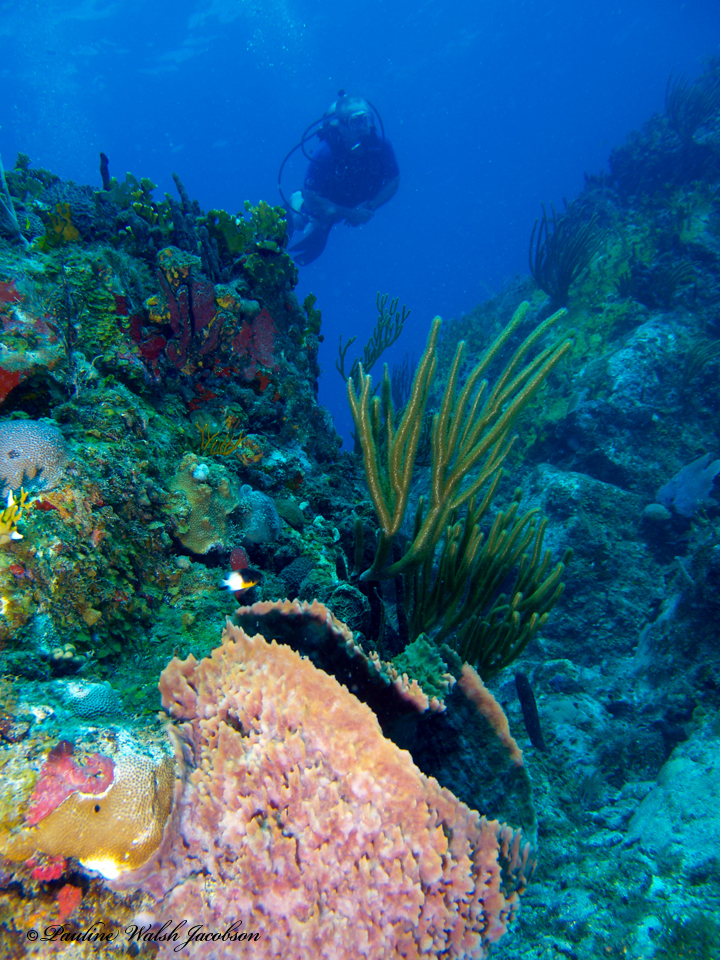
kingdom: Animalia
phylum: Porifera
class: Demospongiae
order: Haplosclerida
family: Petrosiidae
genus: Xestospongia
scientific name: Xestospongia muta
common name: Giant barrel sponge
